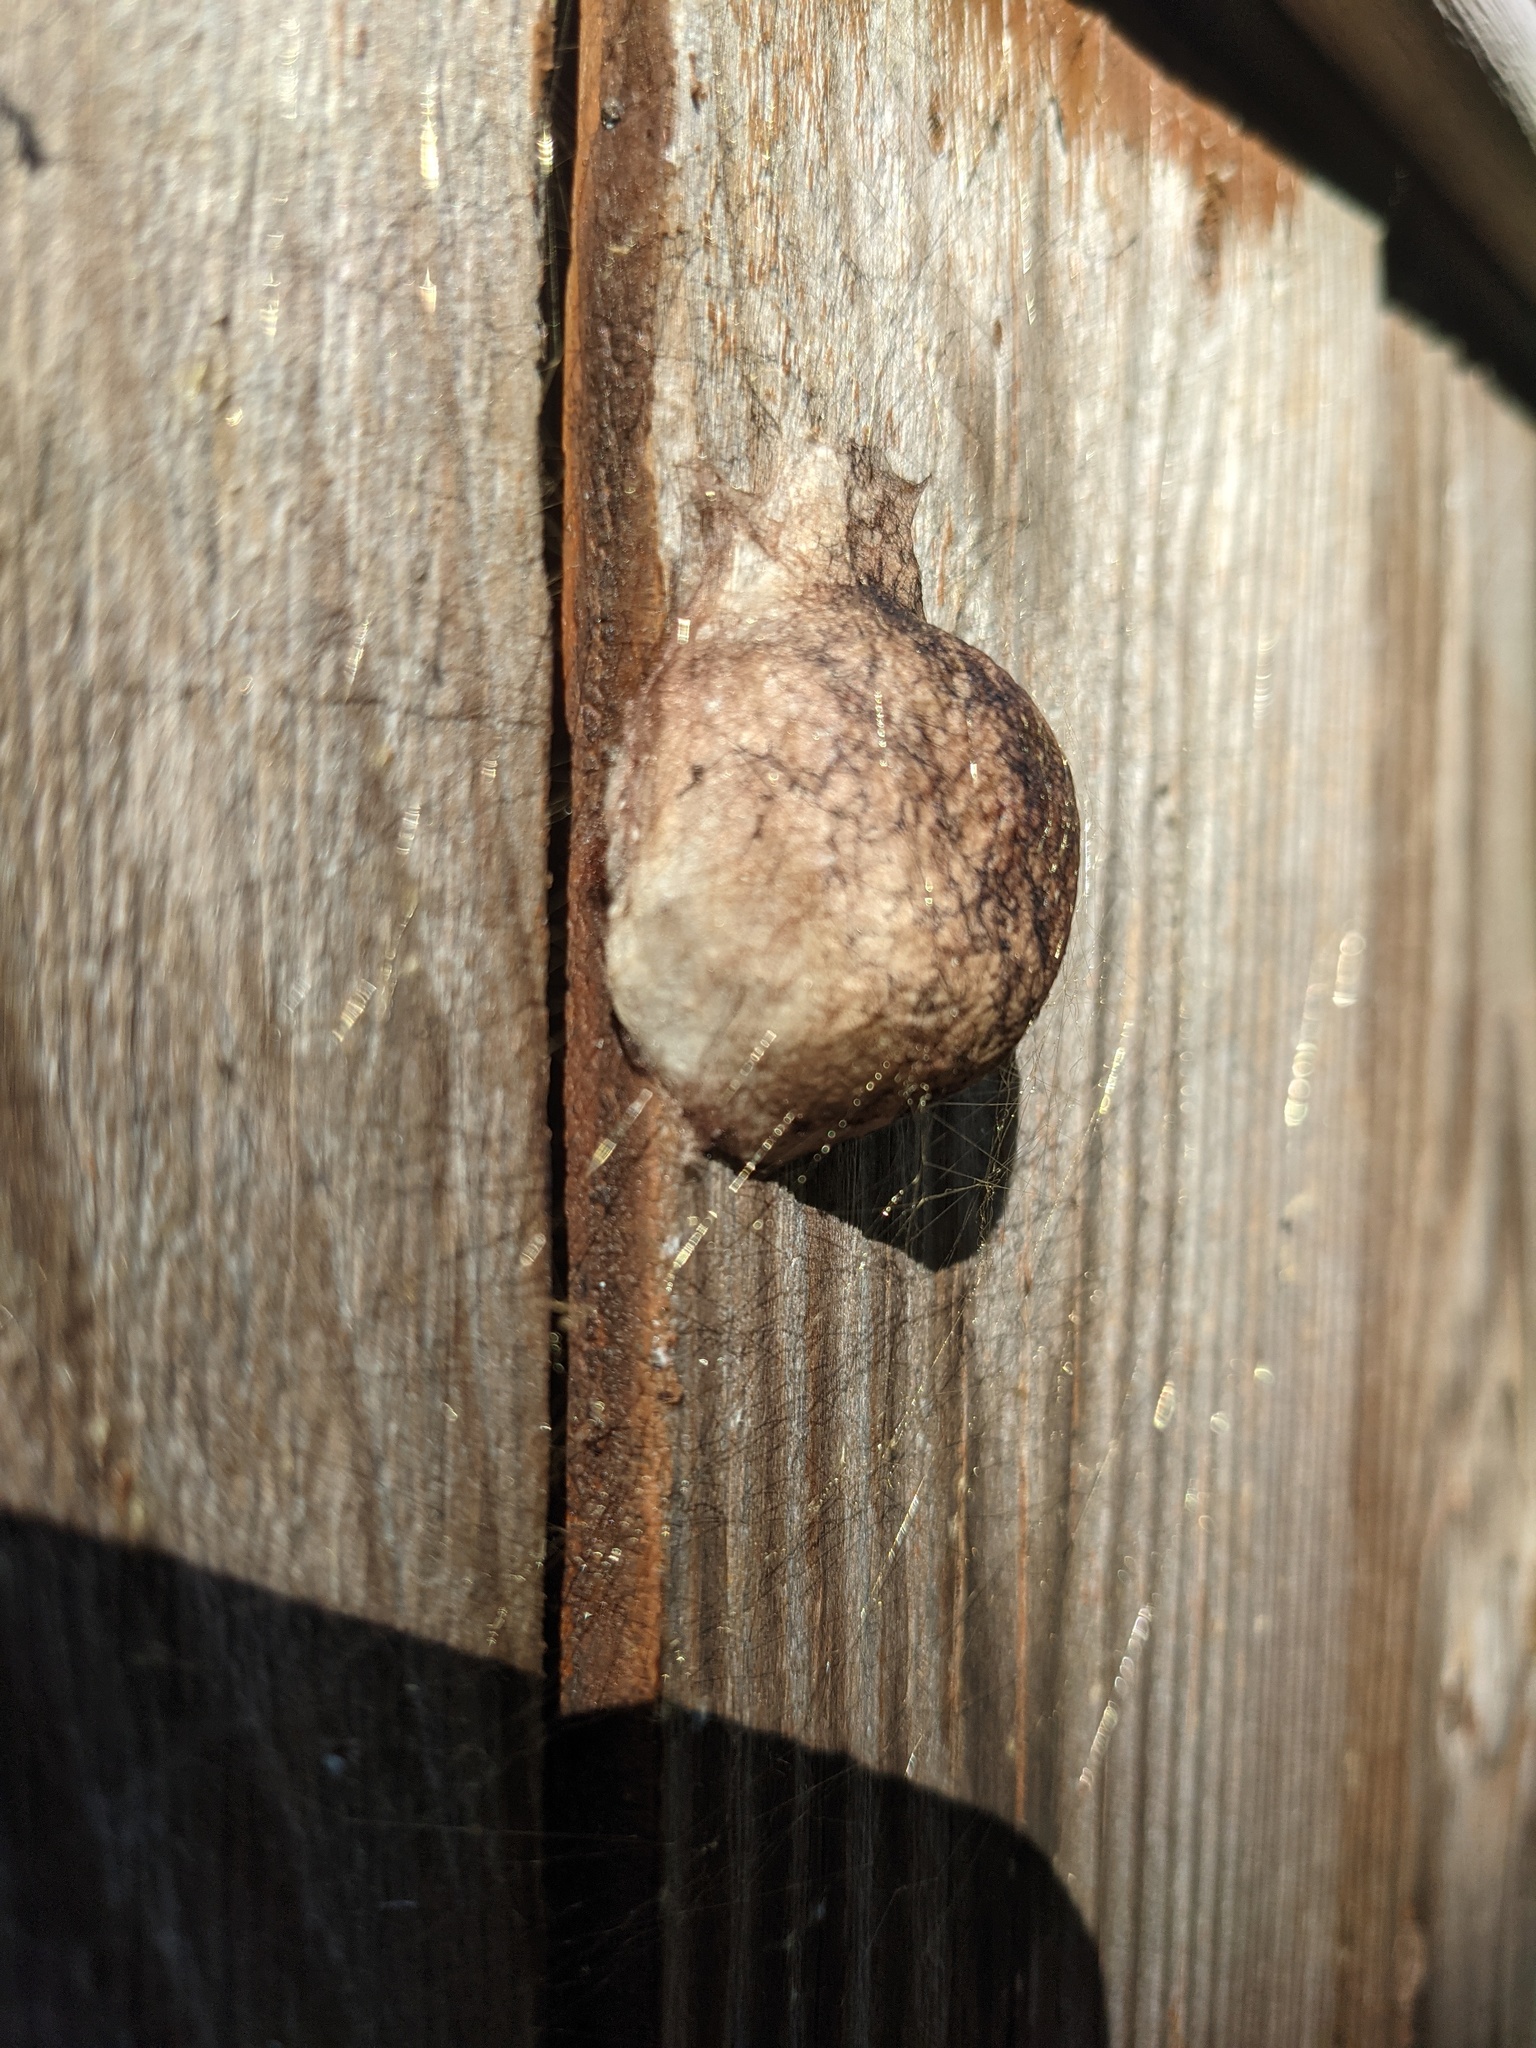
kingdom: Animalia
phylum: Arthropoda
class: Arachnida
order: Araneae
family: Araneidae
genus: Argiope
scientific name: Argiope aurantia
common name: Orb weavers
